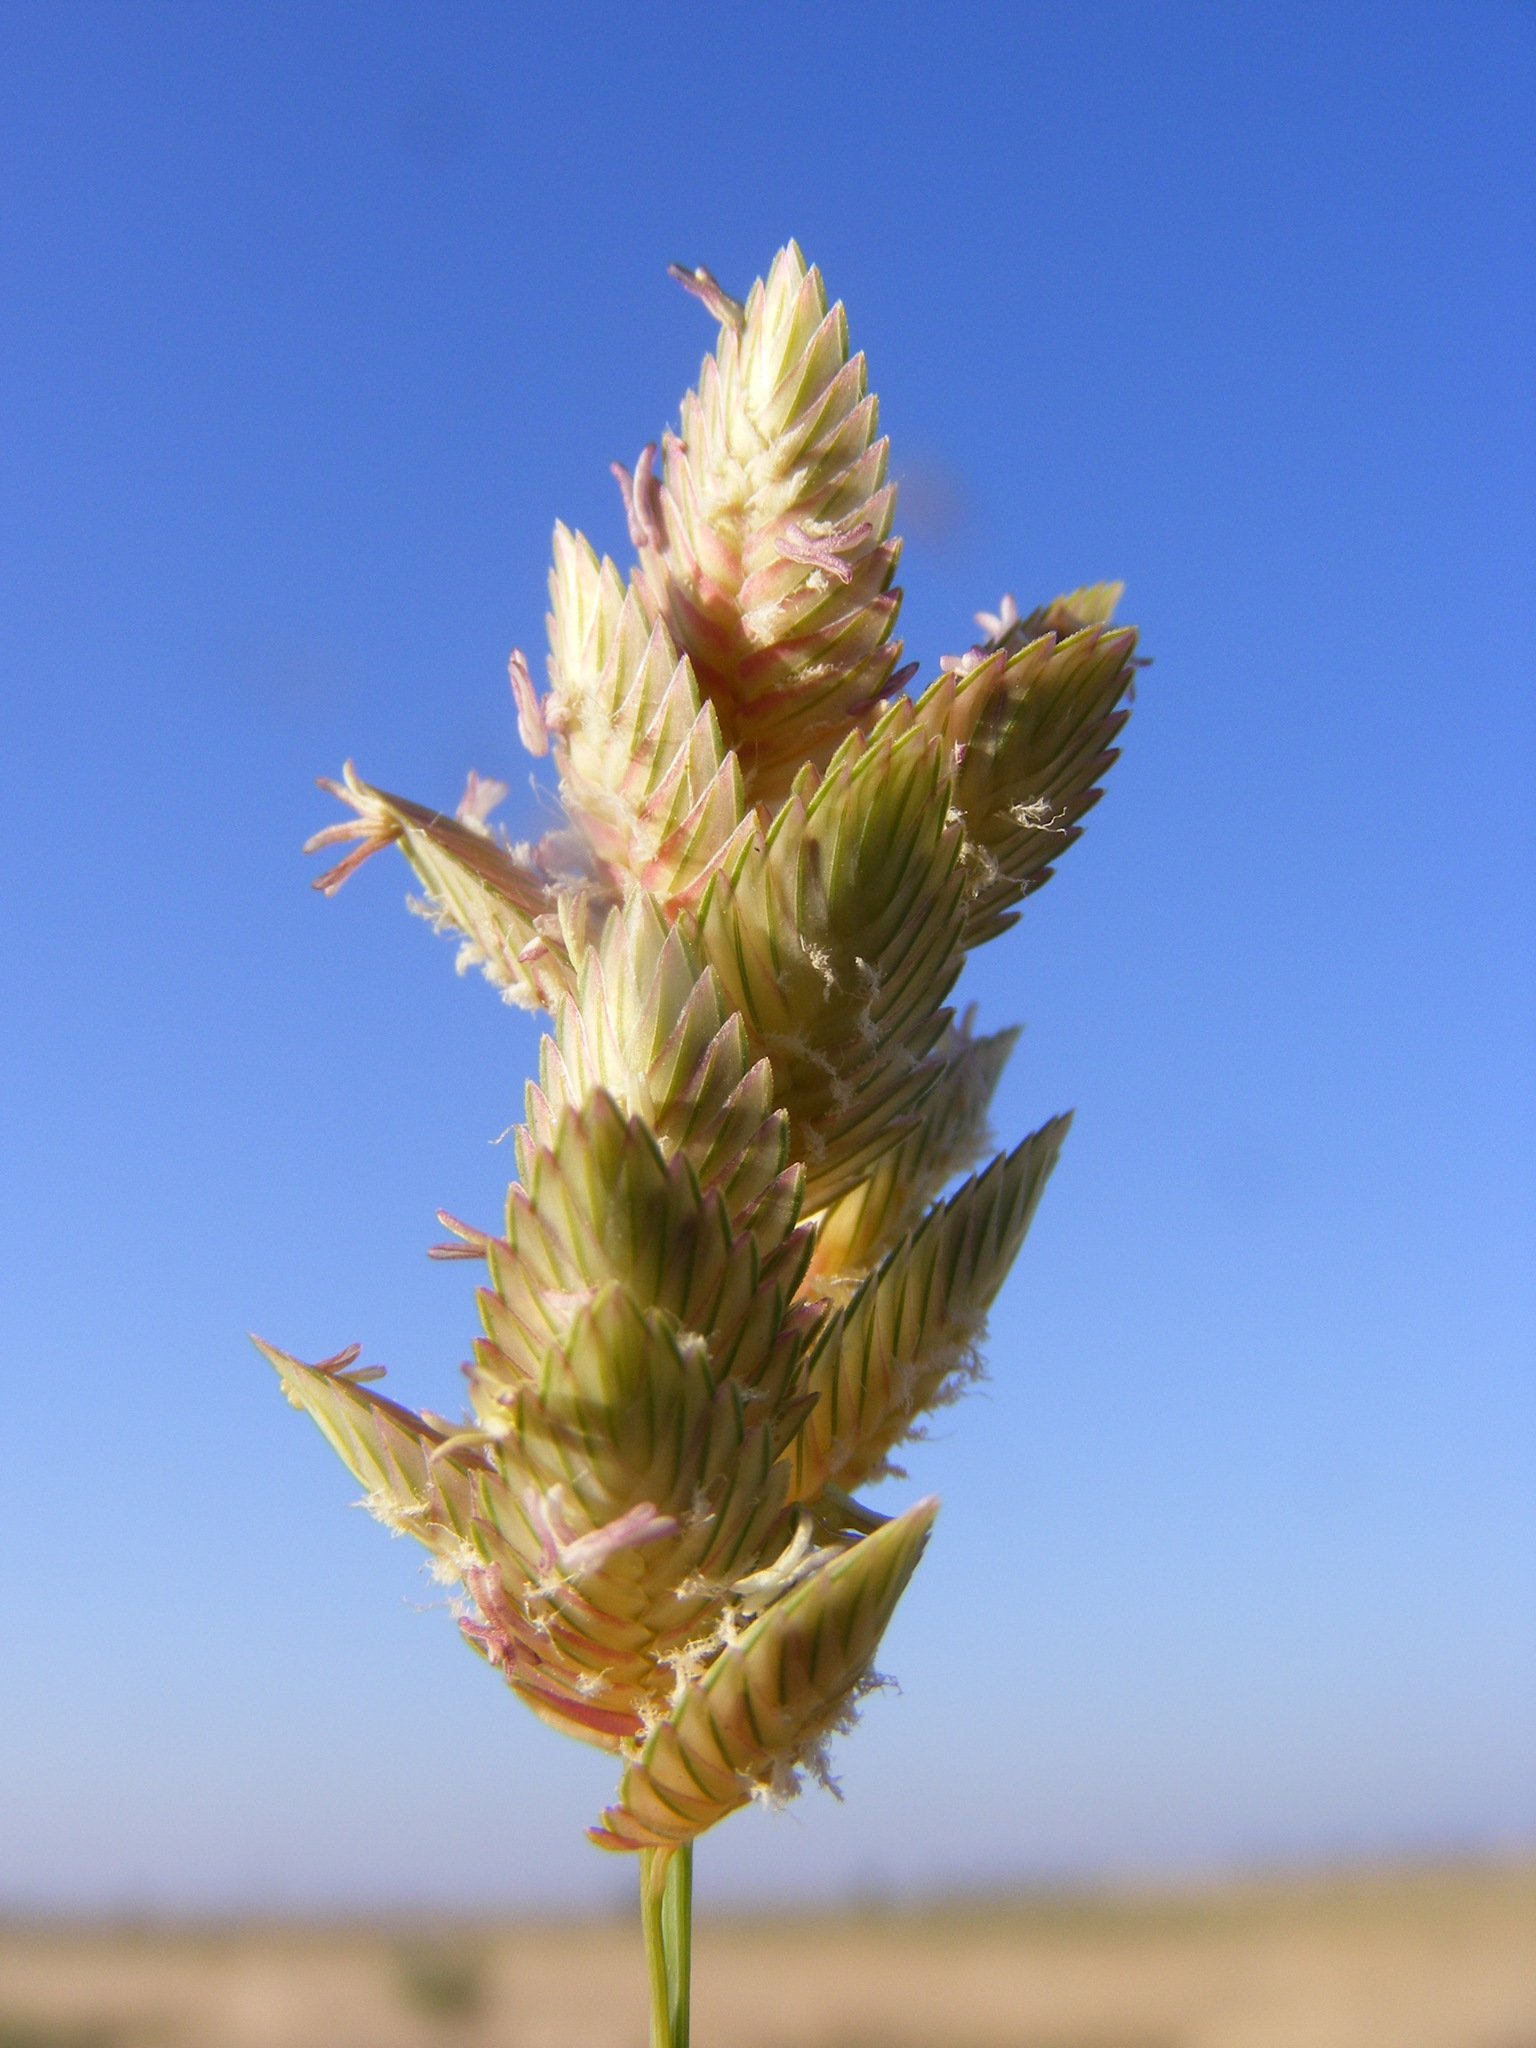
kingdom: Plantae
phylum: Tracheophyta
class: Liliopsida
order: Poales
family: Poaceae
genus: Eragrostis
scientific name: Eragrostis superba
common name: Wilman lovegrass
